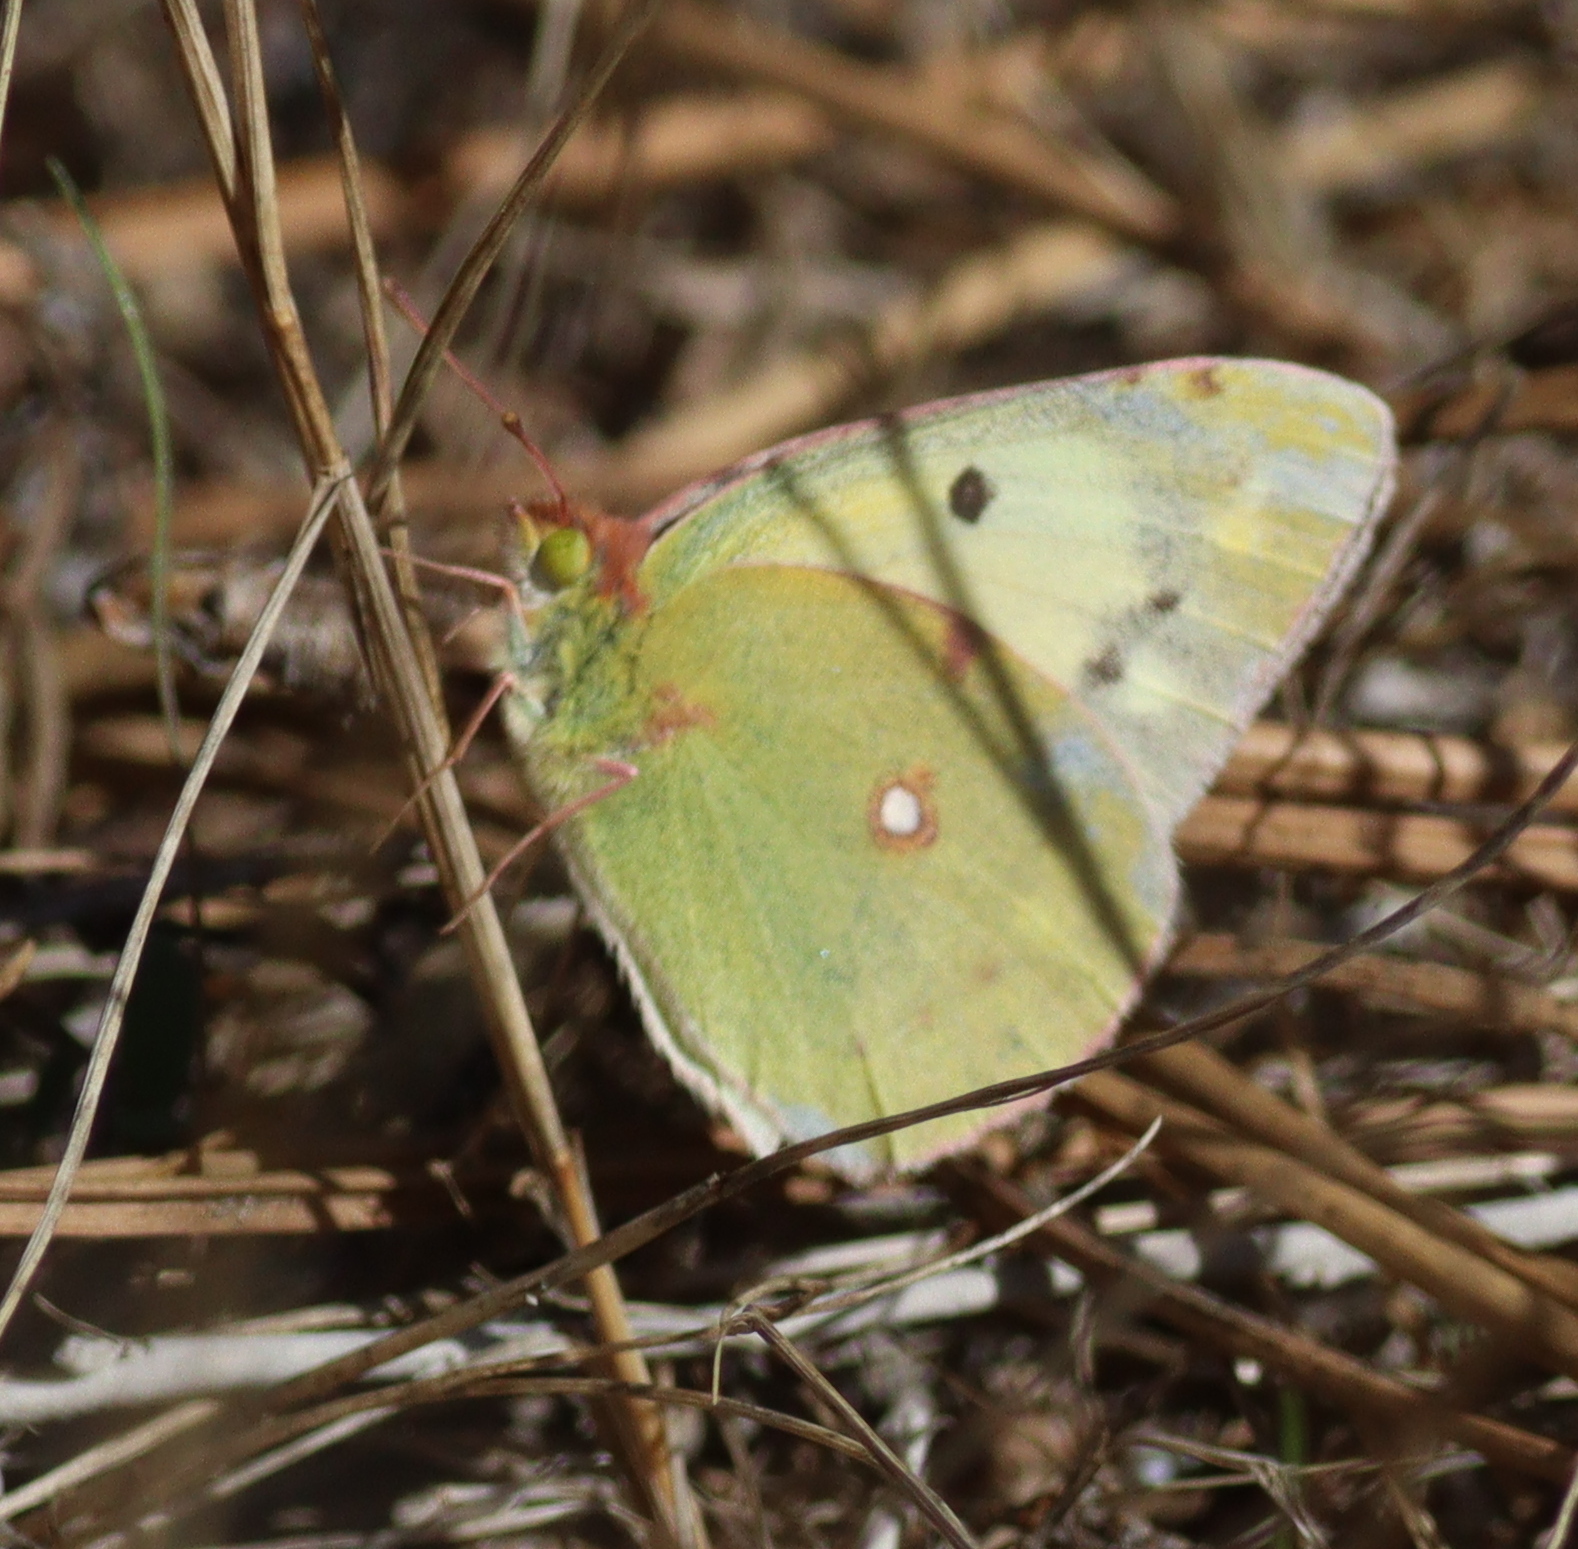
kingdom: Animalia
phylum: Arthropoda
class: Insecta
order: Lepidoptera
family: Pieridae
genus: Colias
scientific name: Colias croceus
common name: Clouded yellow
